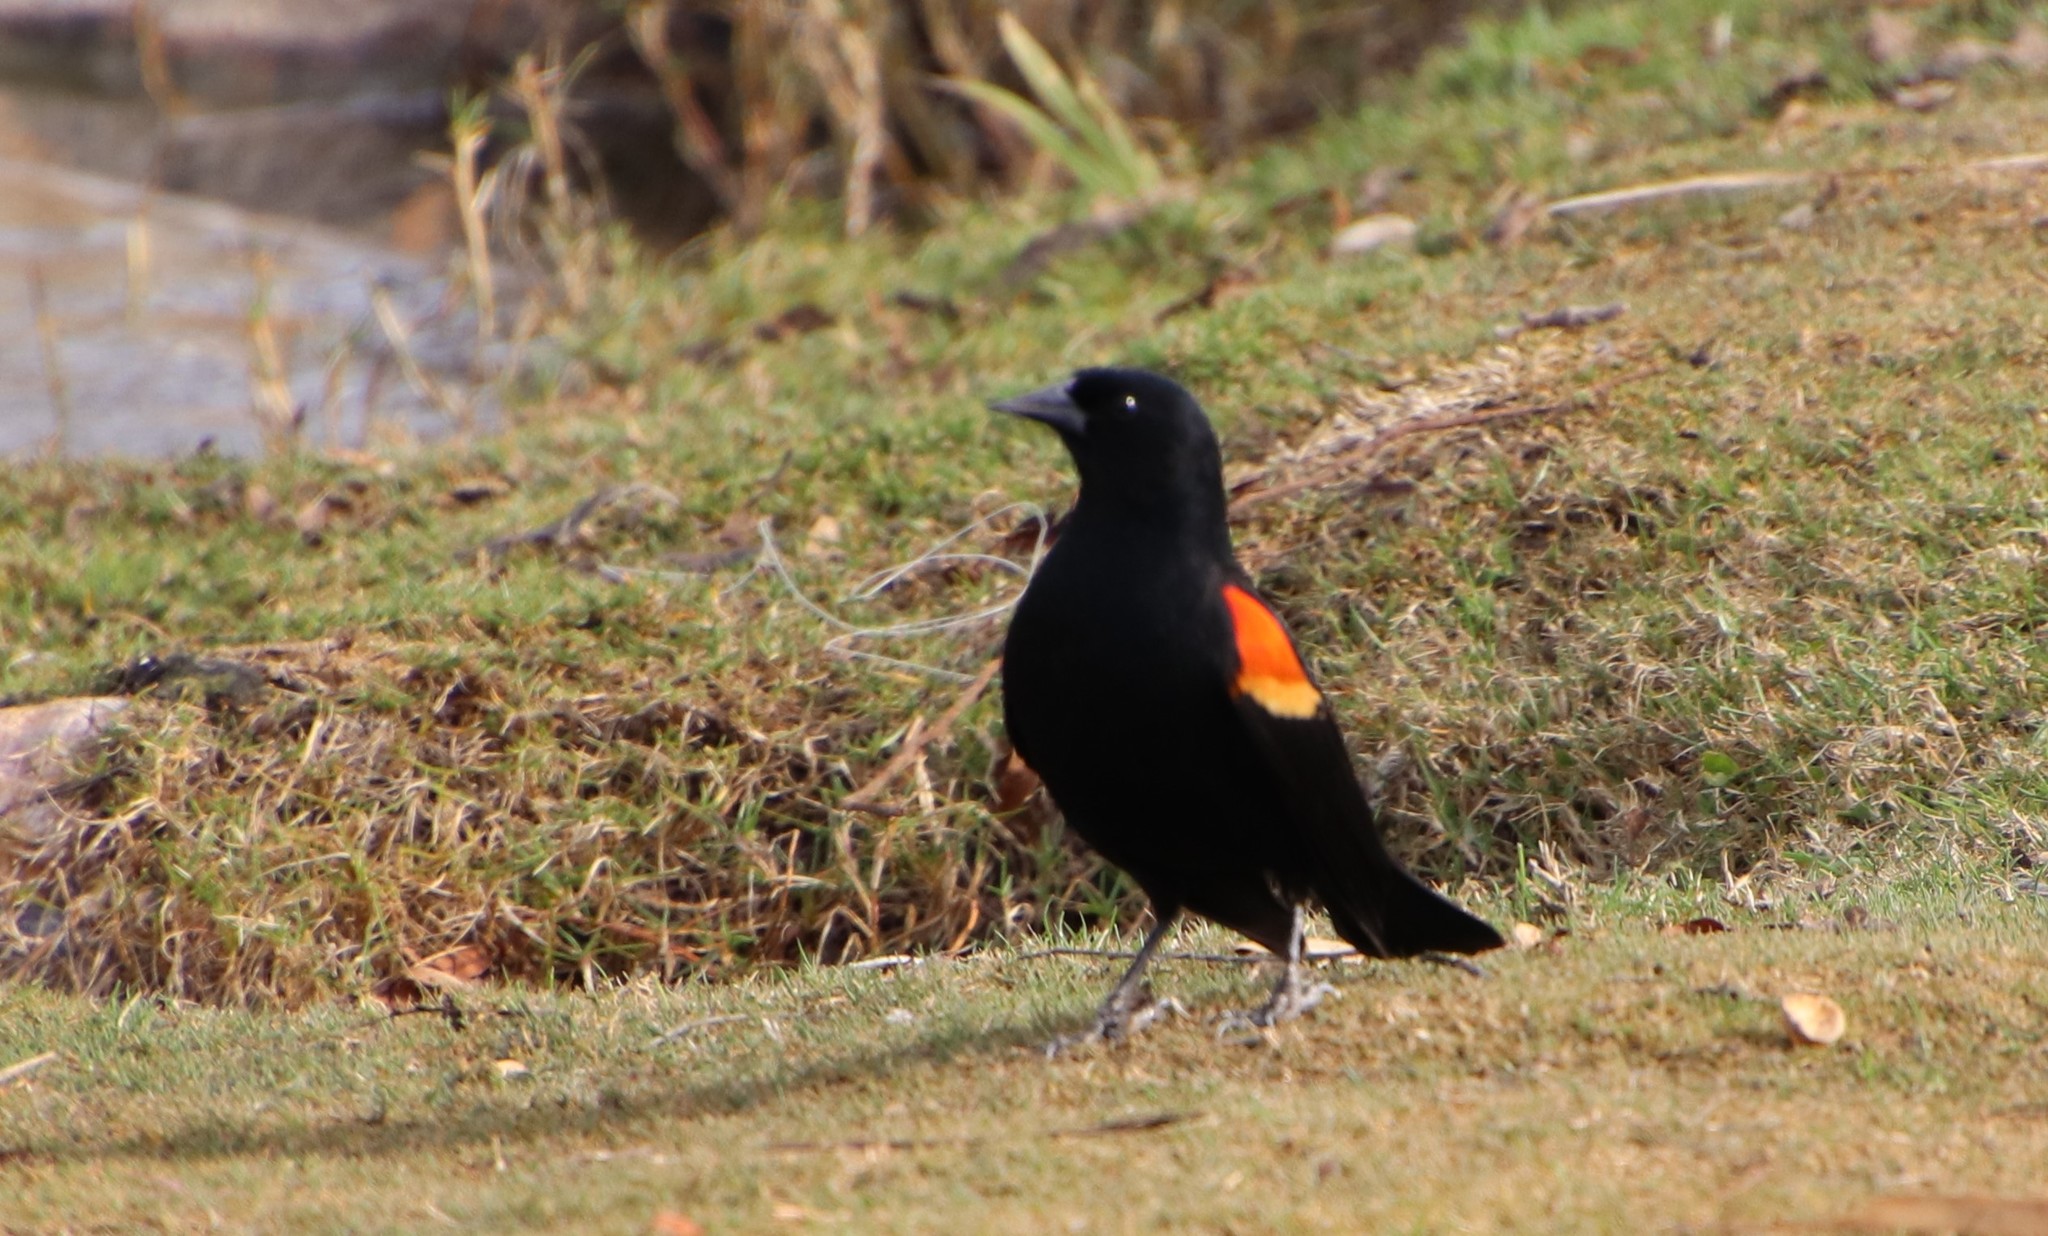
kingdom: Animalia
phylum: Chordata
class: Aves
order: Passeriformes
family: Icteridae
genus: Agelaius
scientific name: Agelaius phoeniceus
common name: Red-winged blackbird
